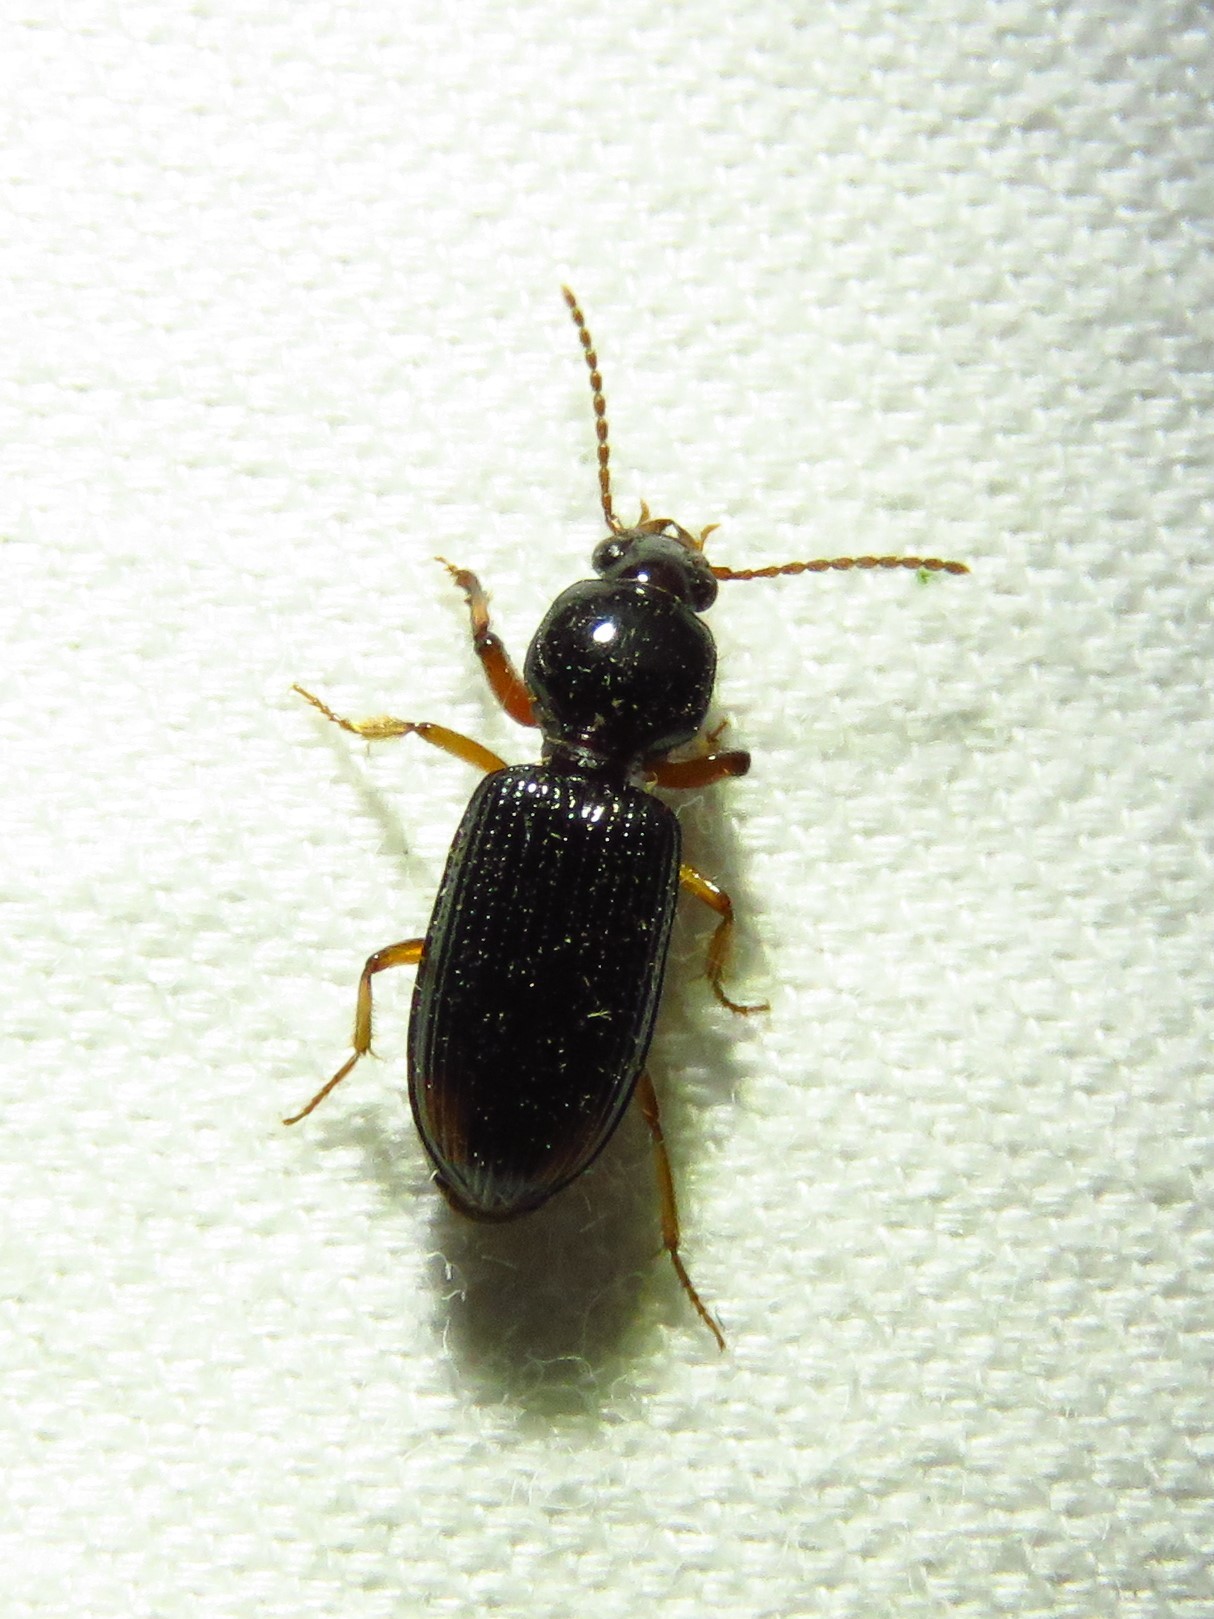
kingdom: Animalia
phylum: Arthropoda
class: Insecta
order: Coleoptera
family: Carabidae
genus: Aspidoglossa
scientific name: Aspidoglossa subangulata
